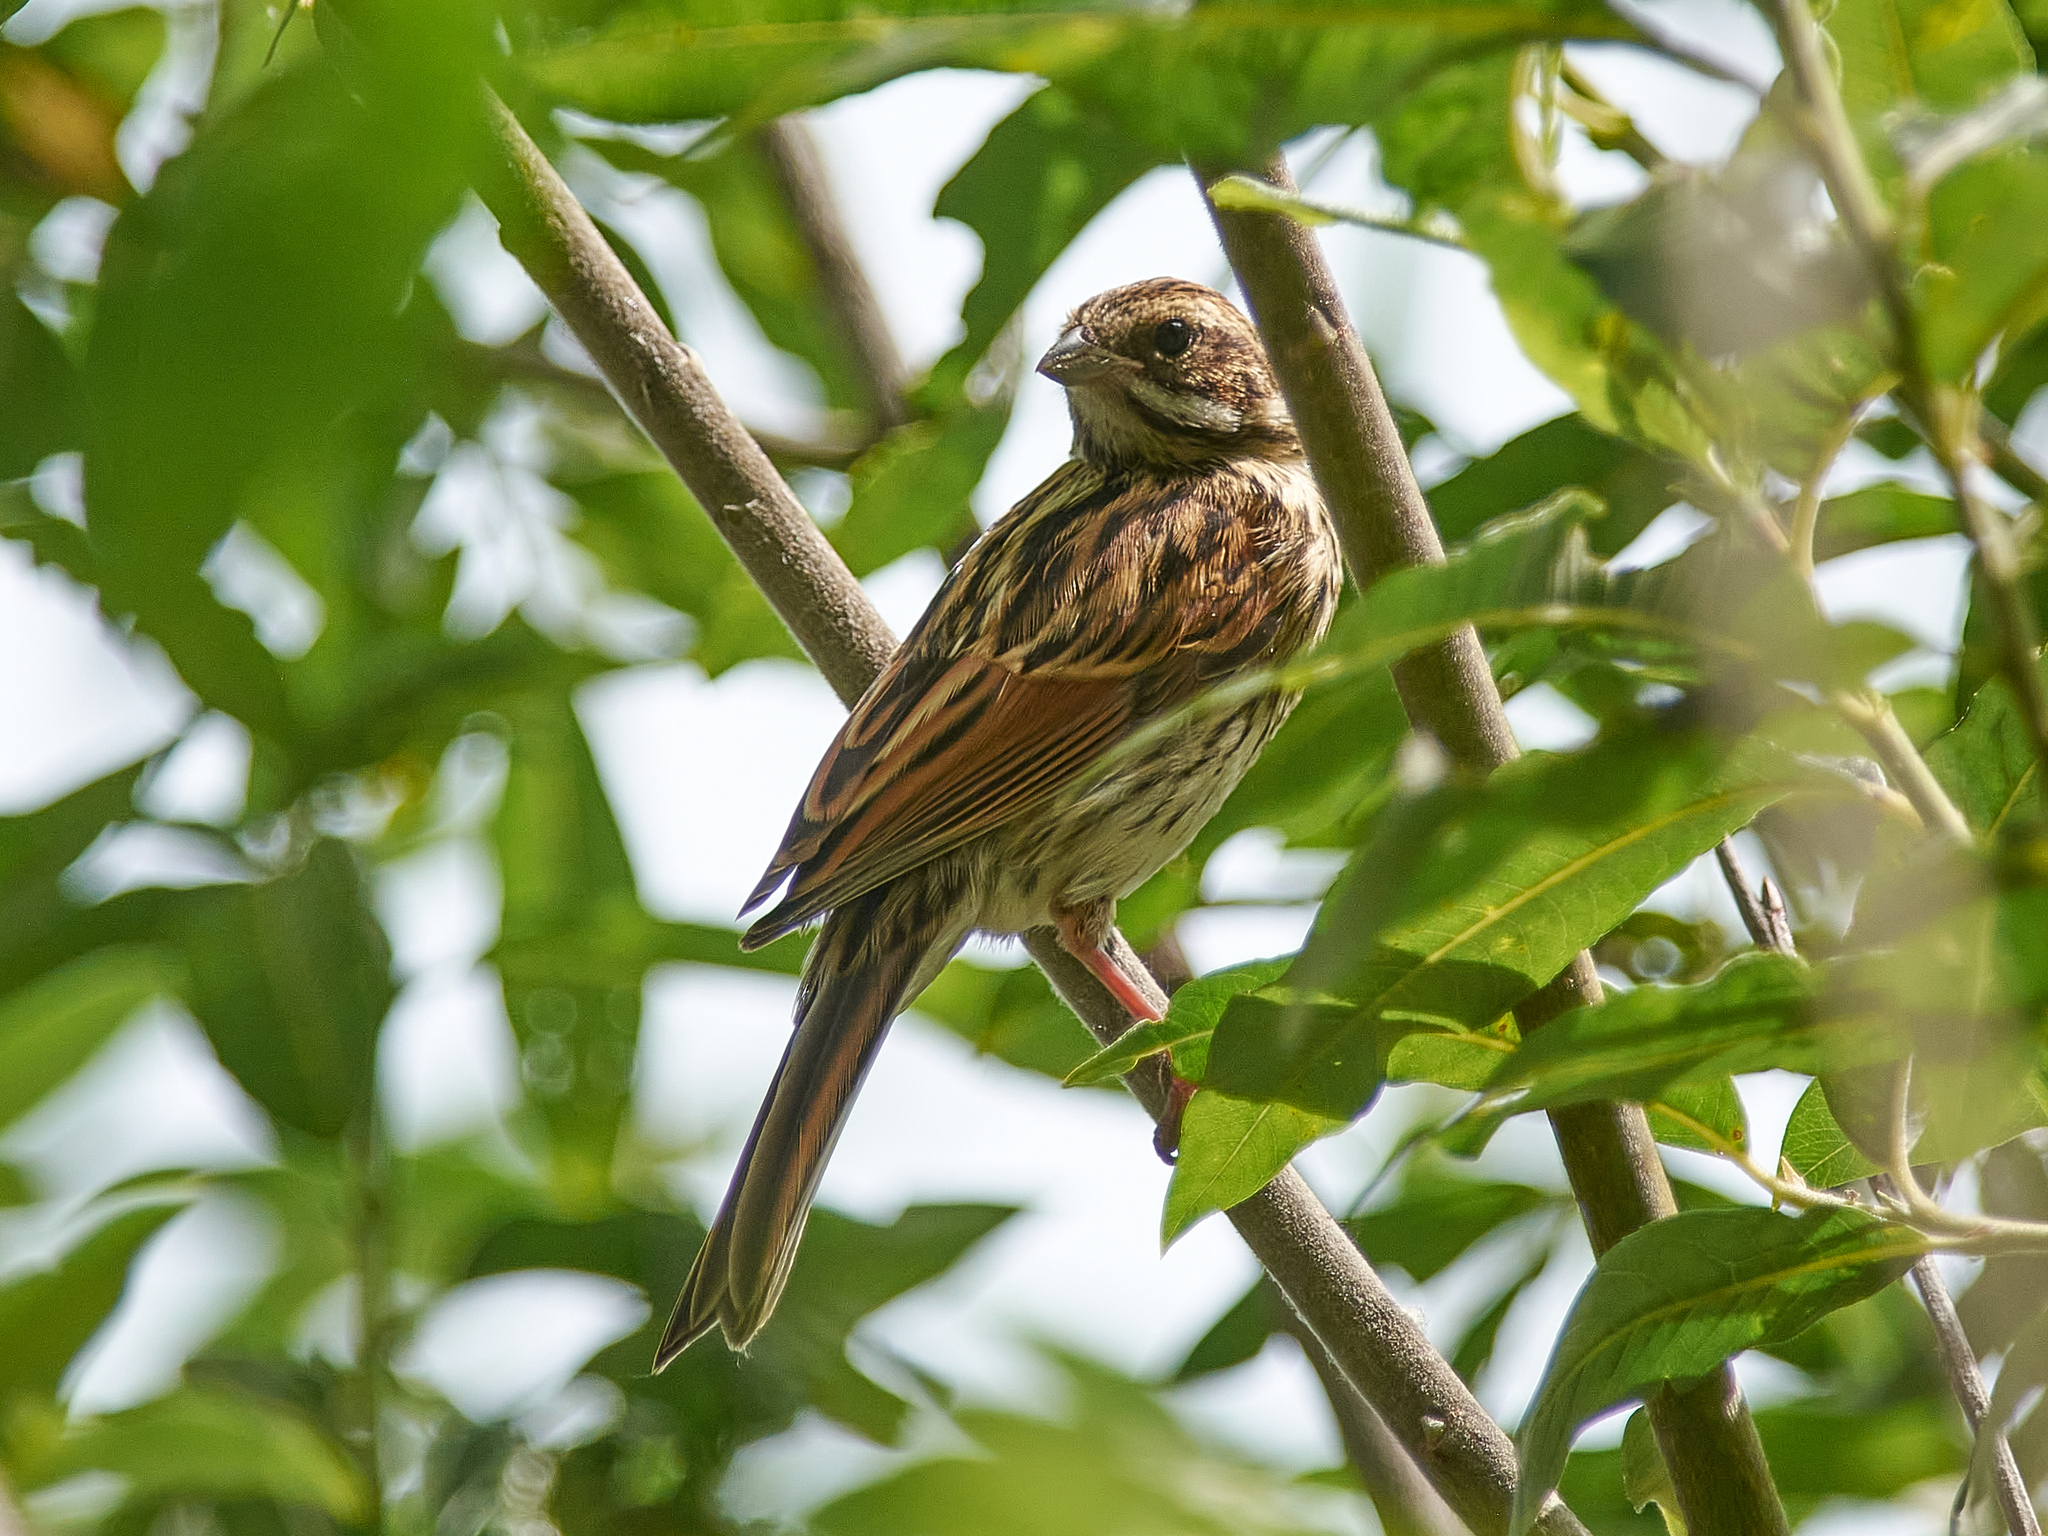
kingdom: Animalia
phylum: Chordata
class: Aves
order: Passeriformes
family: Emberizidae
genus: Emberiza
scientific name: Emberiza schoeniclus
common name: Reed bunting
